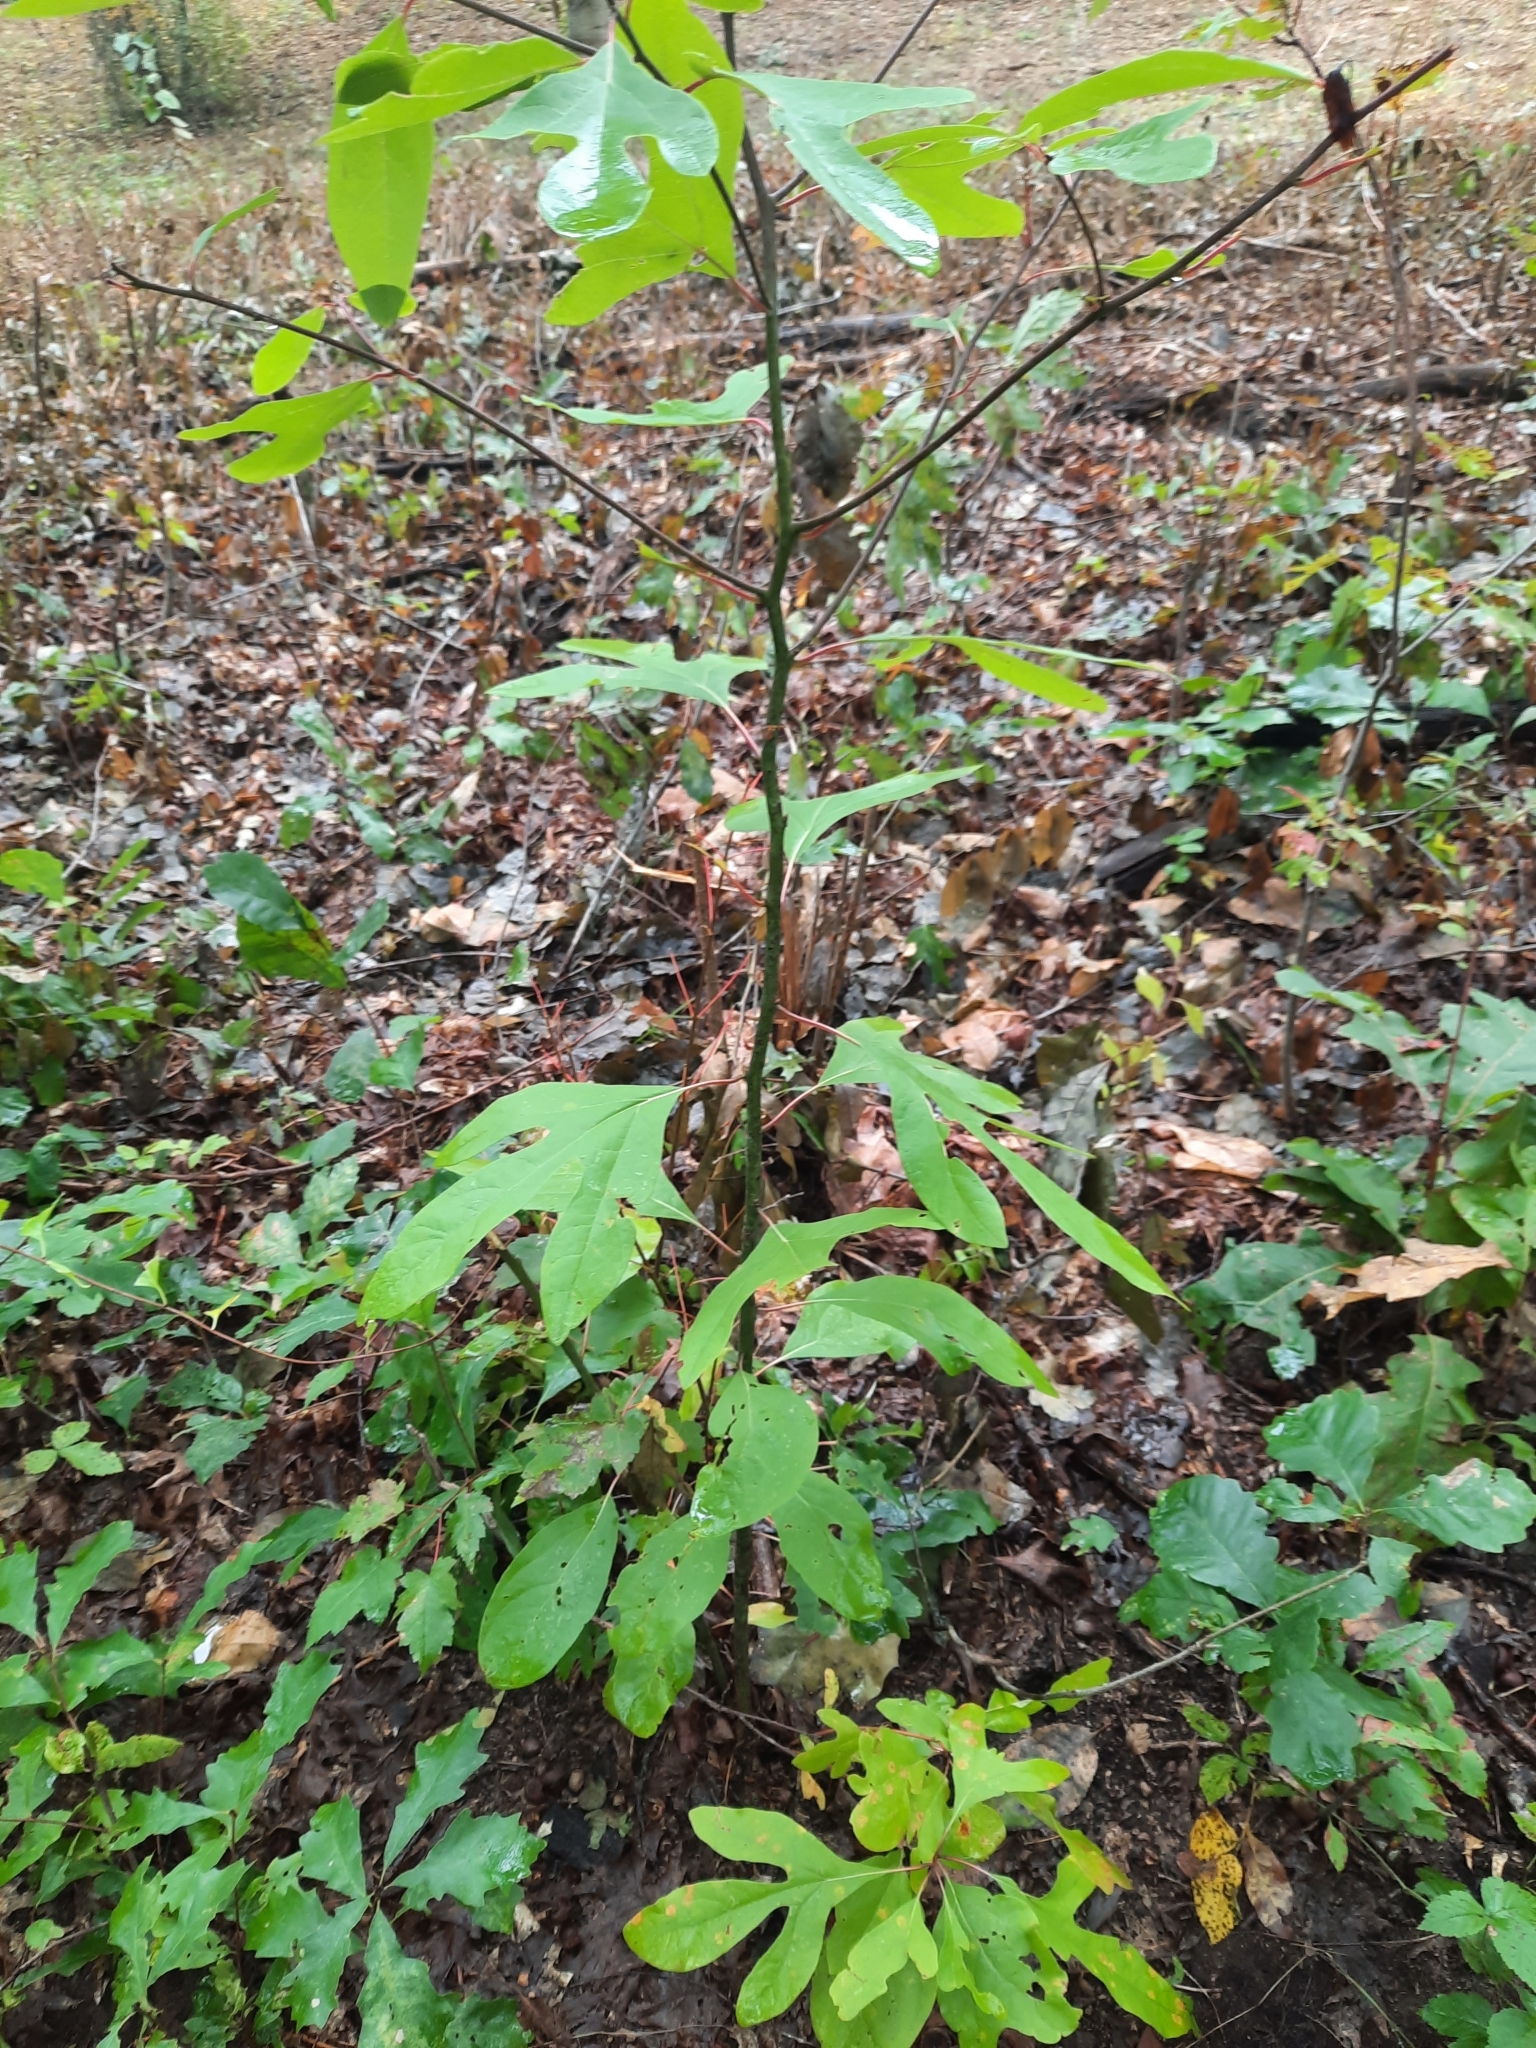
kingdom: Plantae
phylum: Tracheophyta
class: Magnoliopsida
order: Laurales
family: Lauraceae
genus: Sassafras
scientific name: Sassafras albidum
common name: Sassafras
